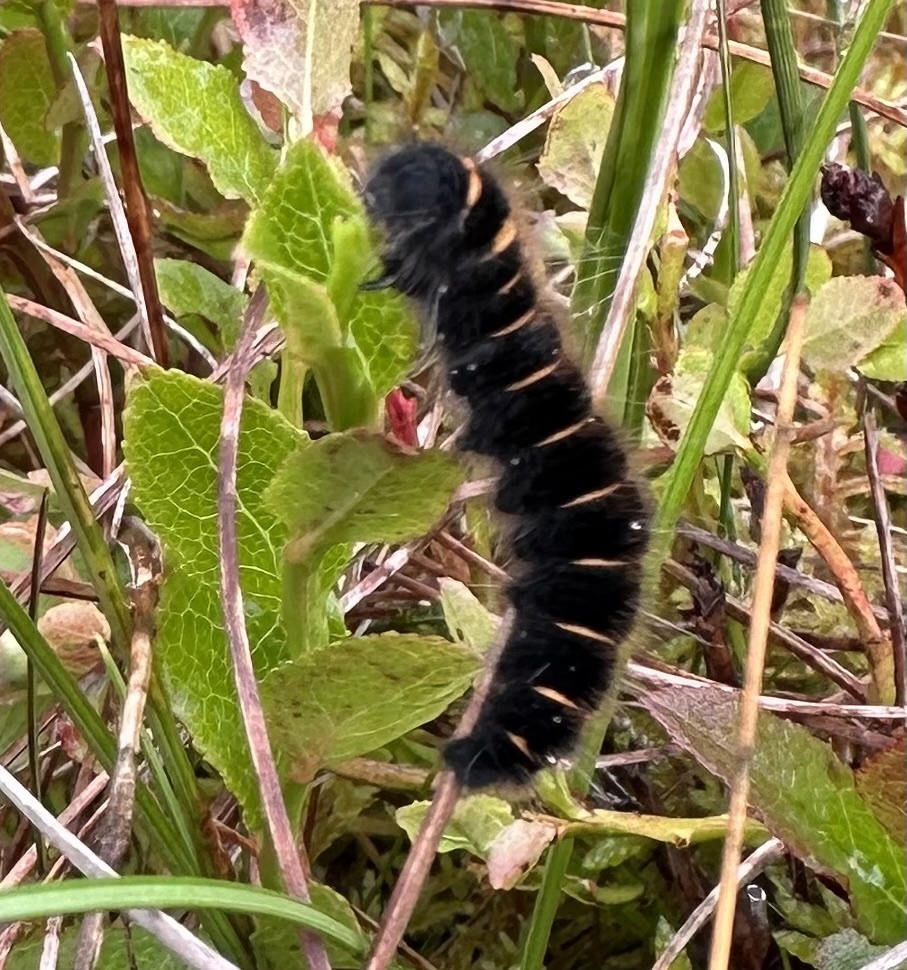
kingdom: Animalia
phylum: Arthropoda
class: Insecta
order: Lepidoptera
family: Lasiocampidae
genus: Macrothylacia
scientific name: Macrothylacia rubi
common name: Fox moth
